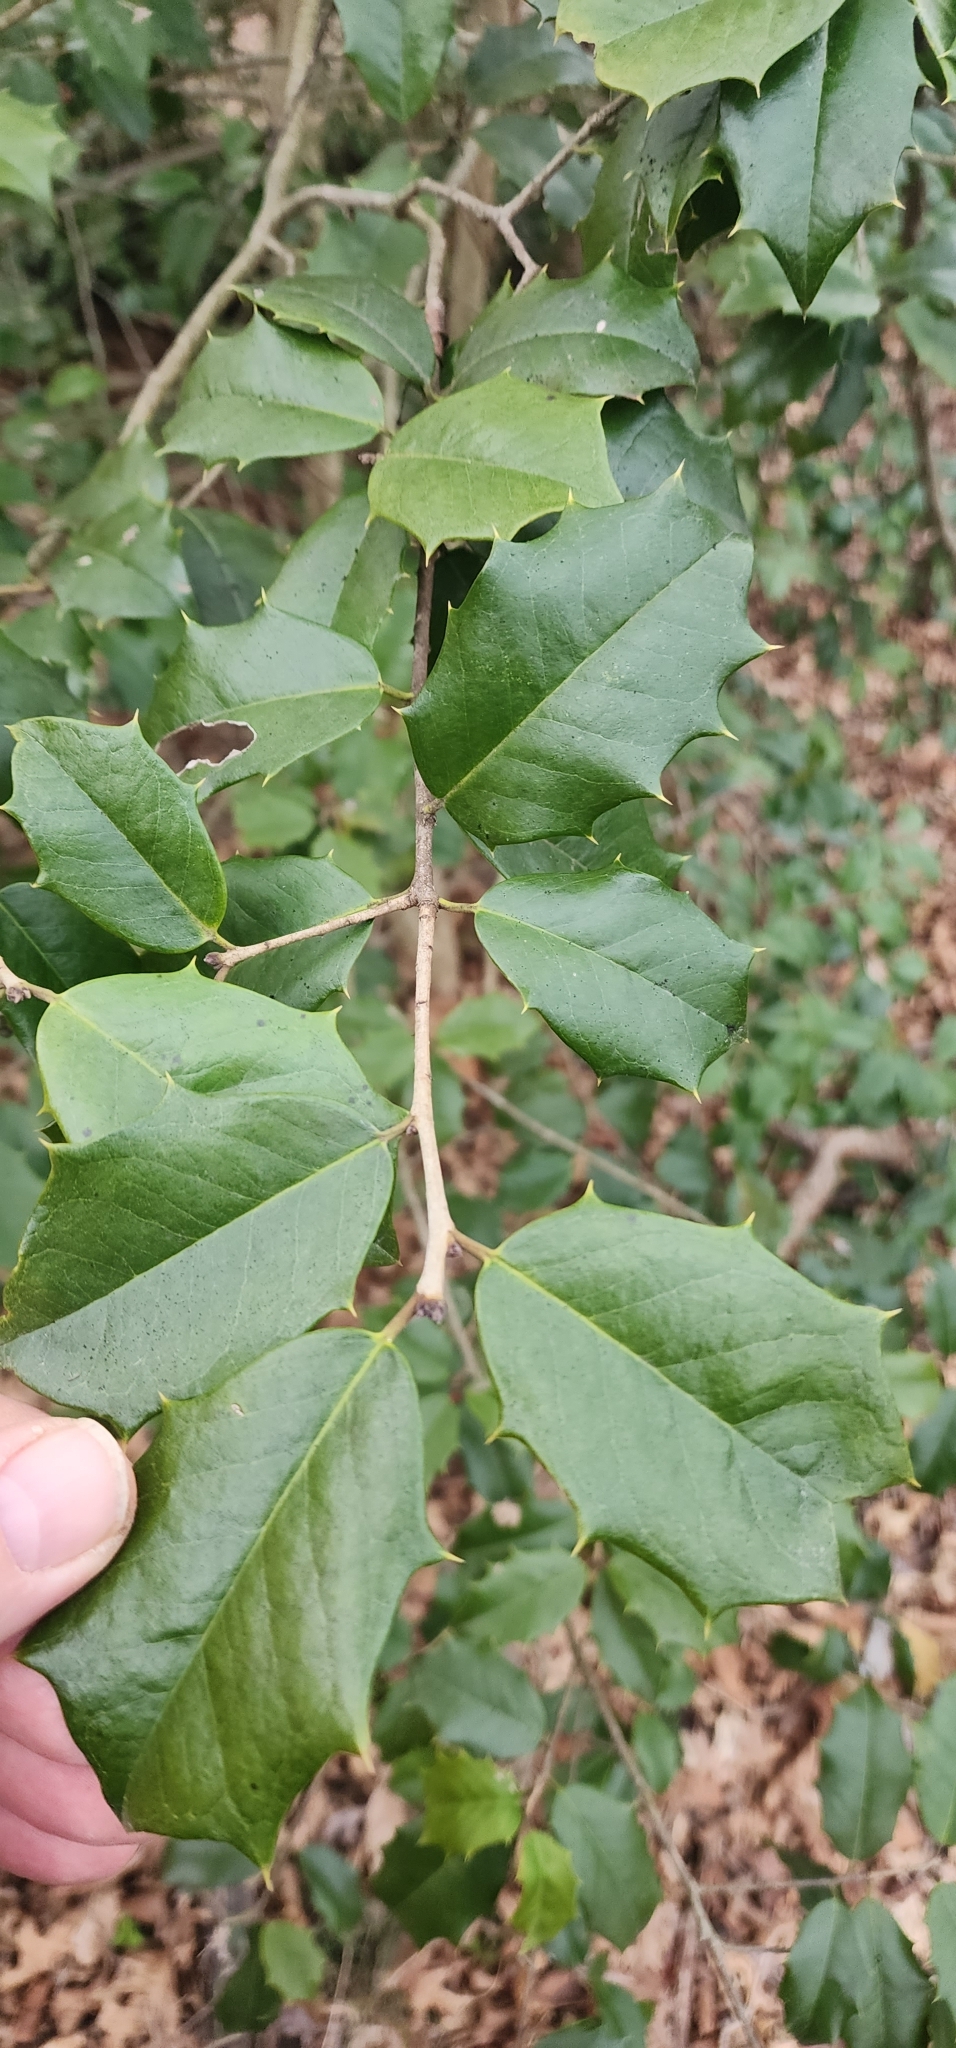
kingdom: Plantae
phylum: Tracheophyta
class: Magnoliopsida
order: Aquifoliales
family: Aquifoliaceae
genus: Ilex
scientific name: Ilex opaca
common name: American holly
